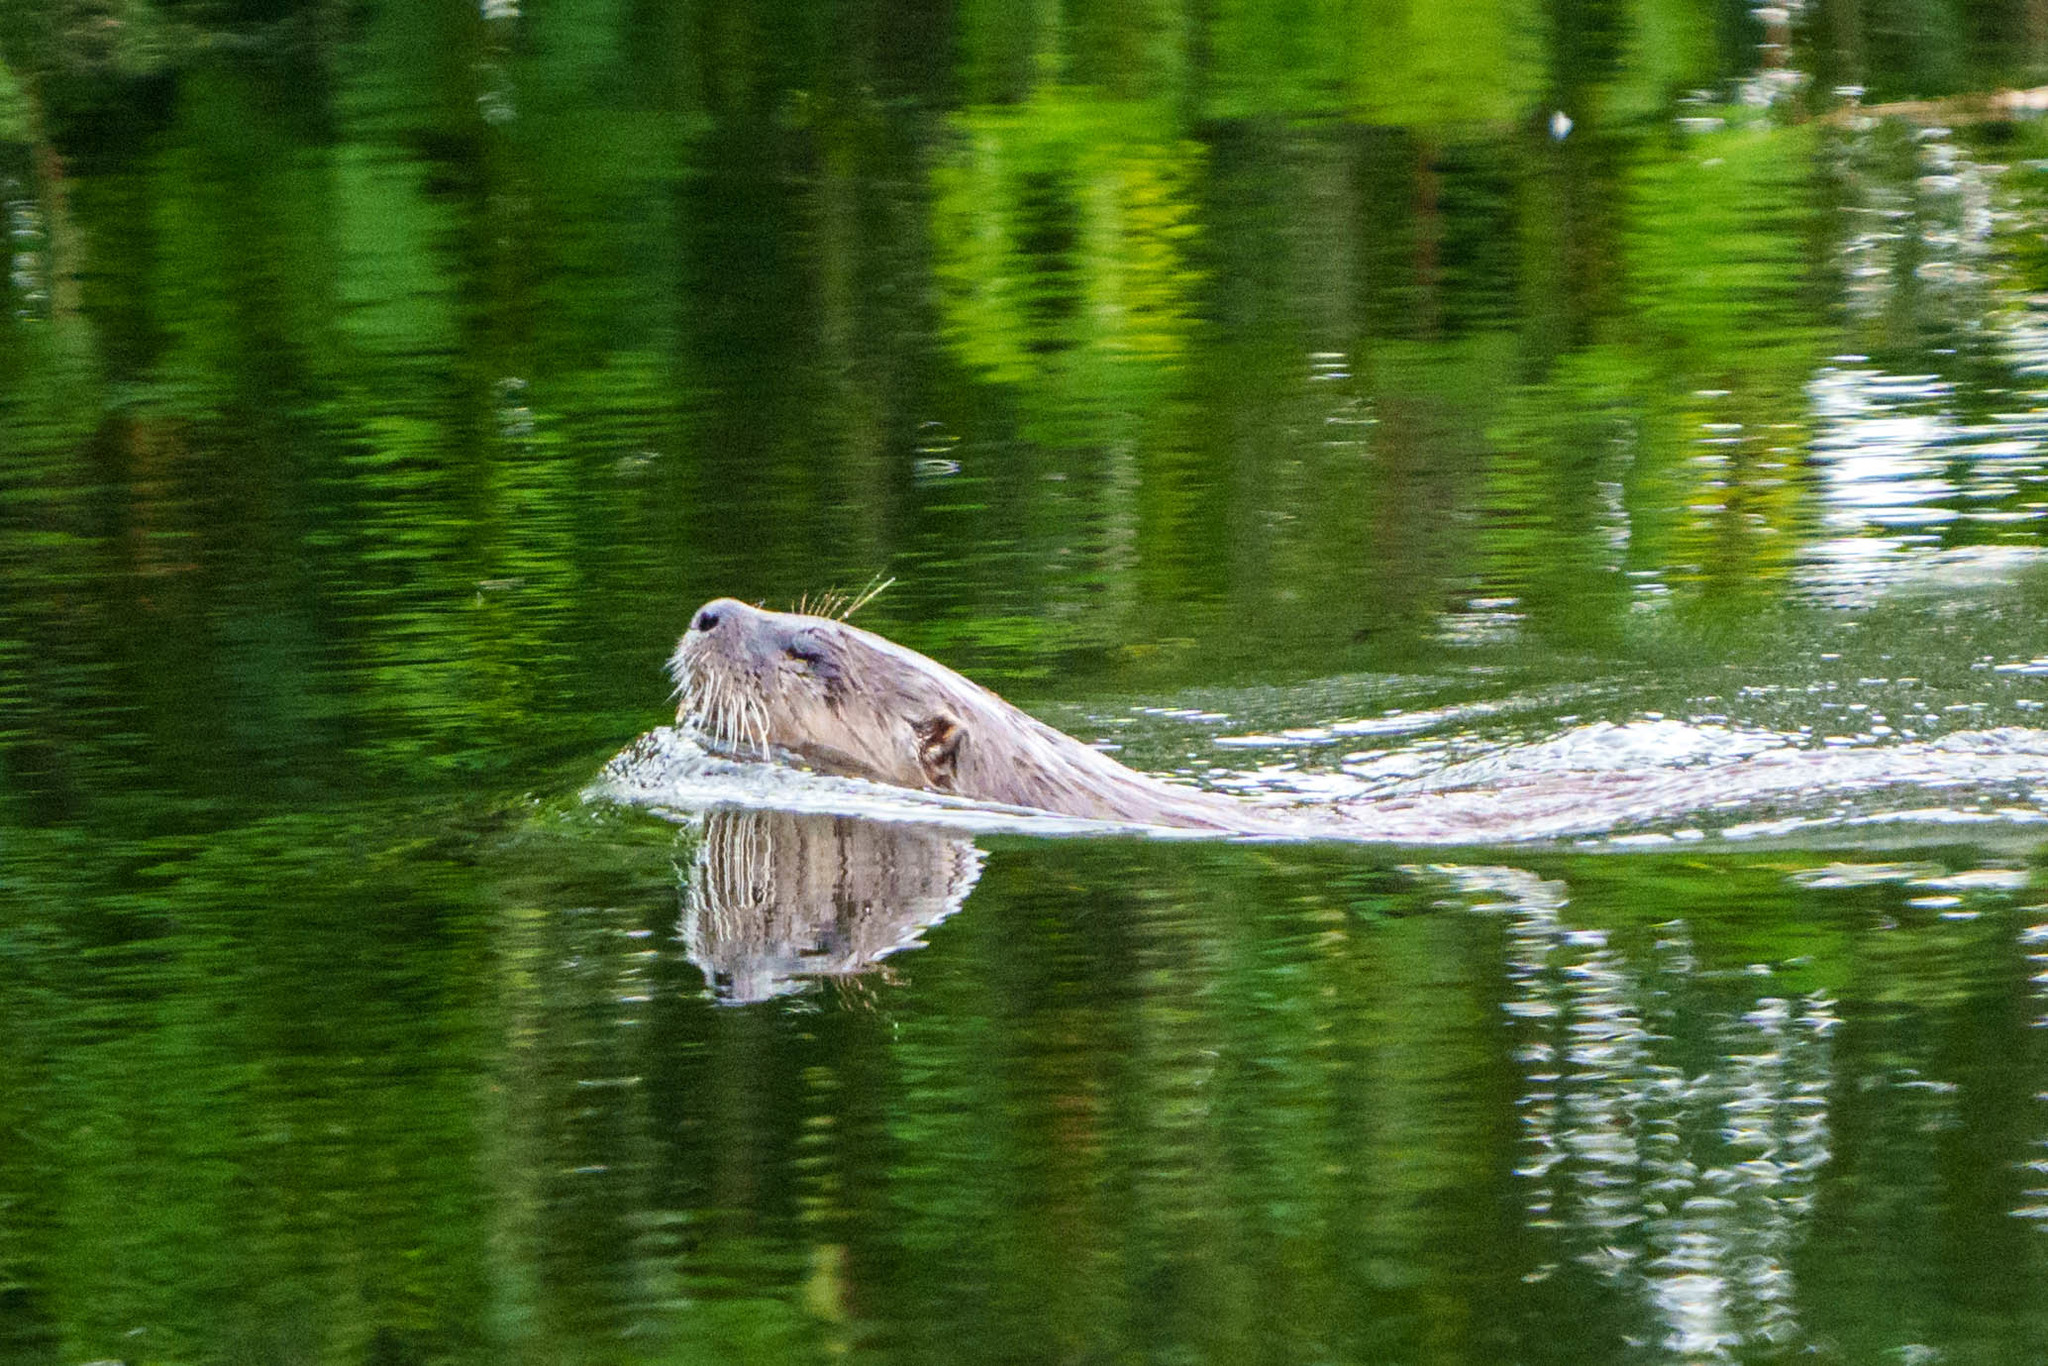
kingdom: Animalia
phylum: Chordata
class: Mammalia
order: Carnivora
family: Mustelidae
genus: Lontra
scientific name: Lontra canadensis
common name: North american river otter
